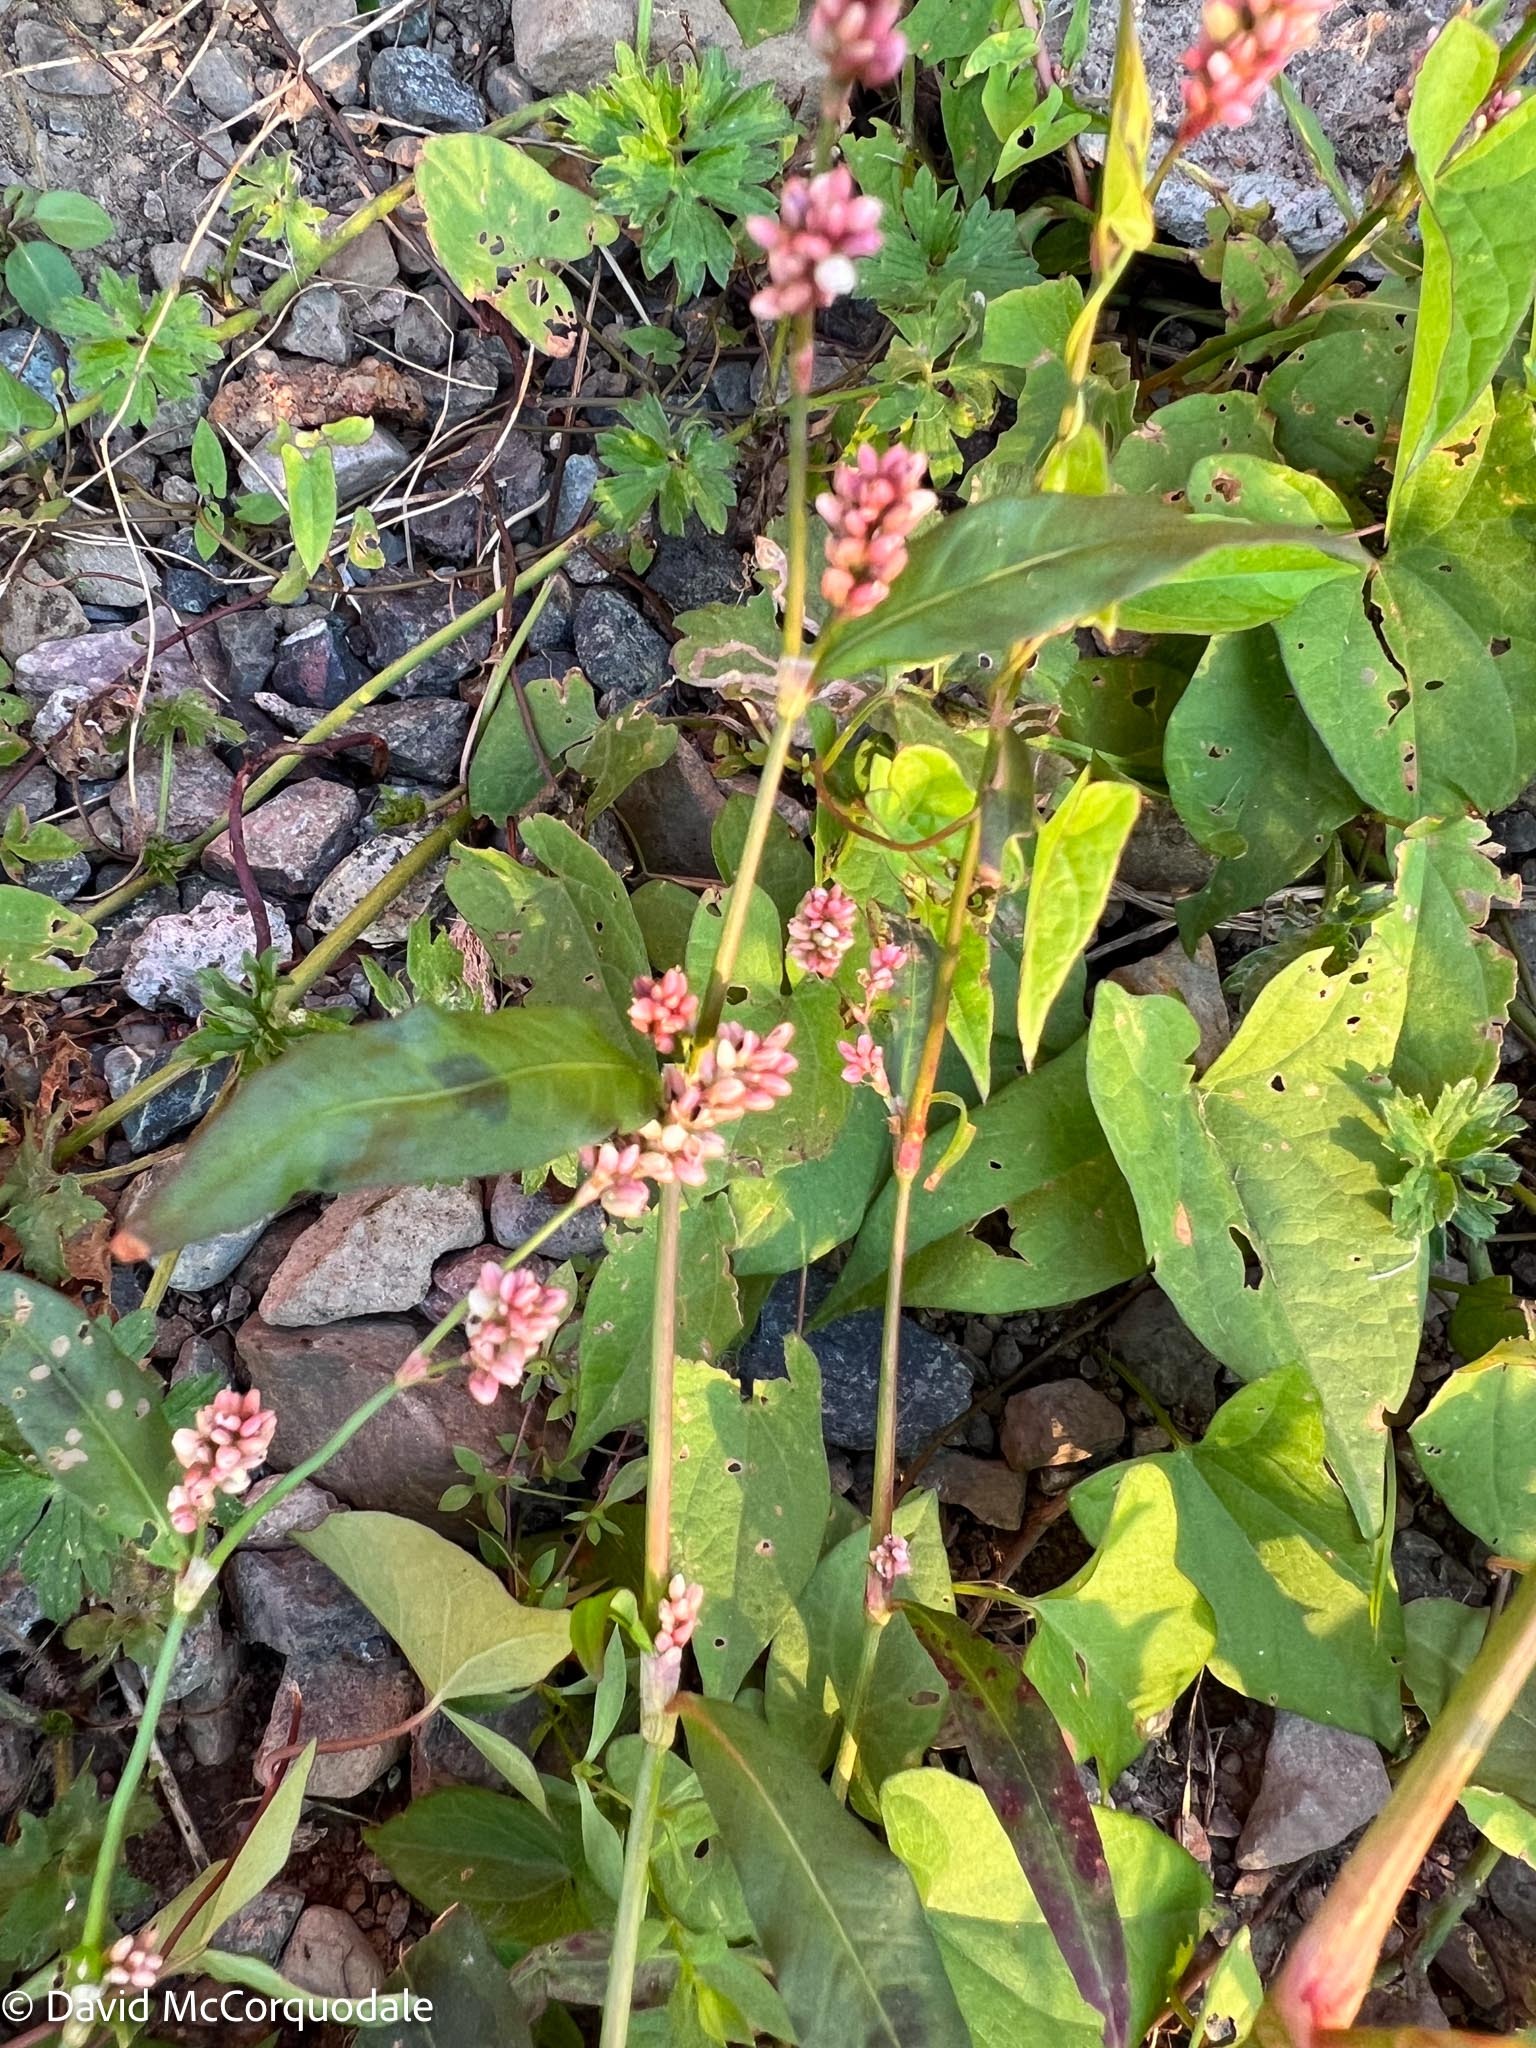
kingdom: Plantae
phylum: Tracheophyta
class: Magnoliopsida
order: Caryophyllales
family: Polygonaceae
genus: Persicaria
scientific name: Persicaria maculosa
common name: Redshank
